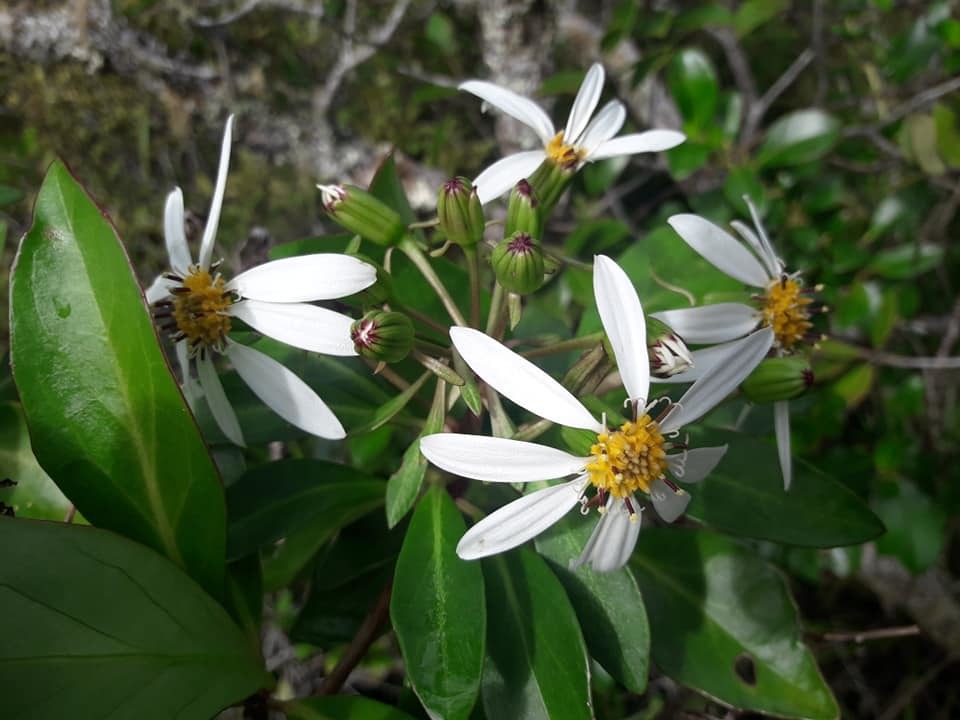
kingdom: Plantae
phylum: Tracheophyta
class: Magnoliopsida
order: Asterales
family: Asteraceae
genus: Brachyglottis
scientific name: Brachyglottis kirkii
